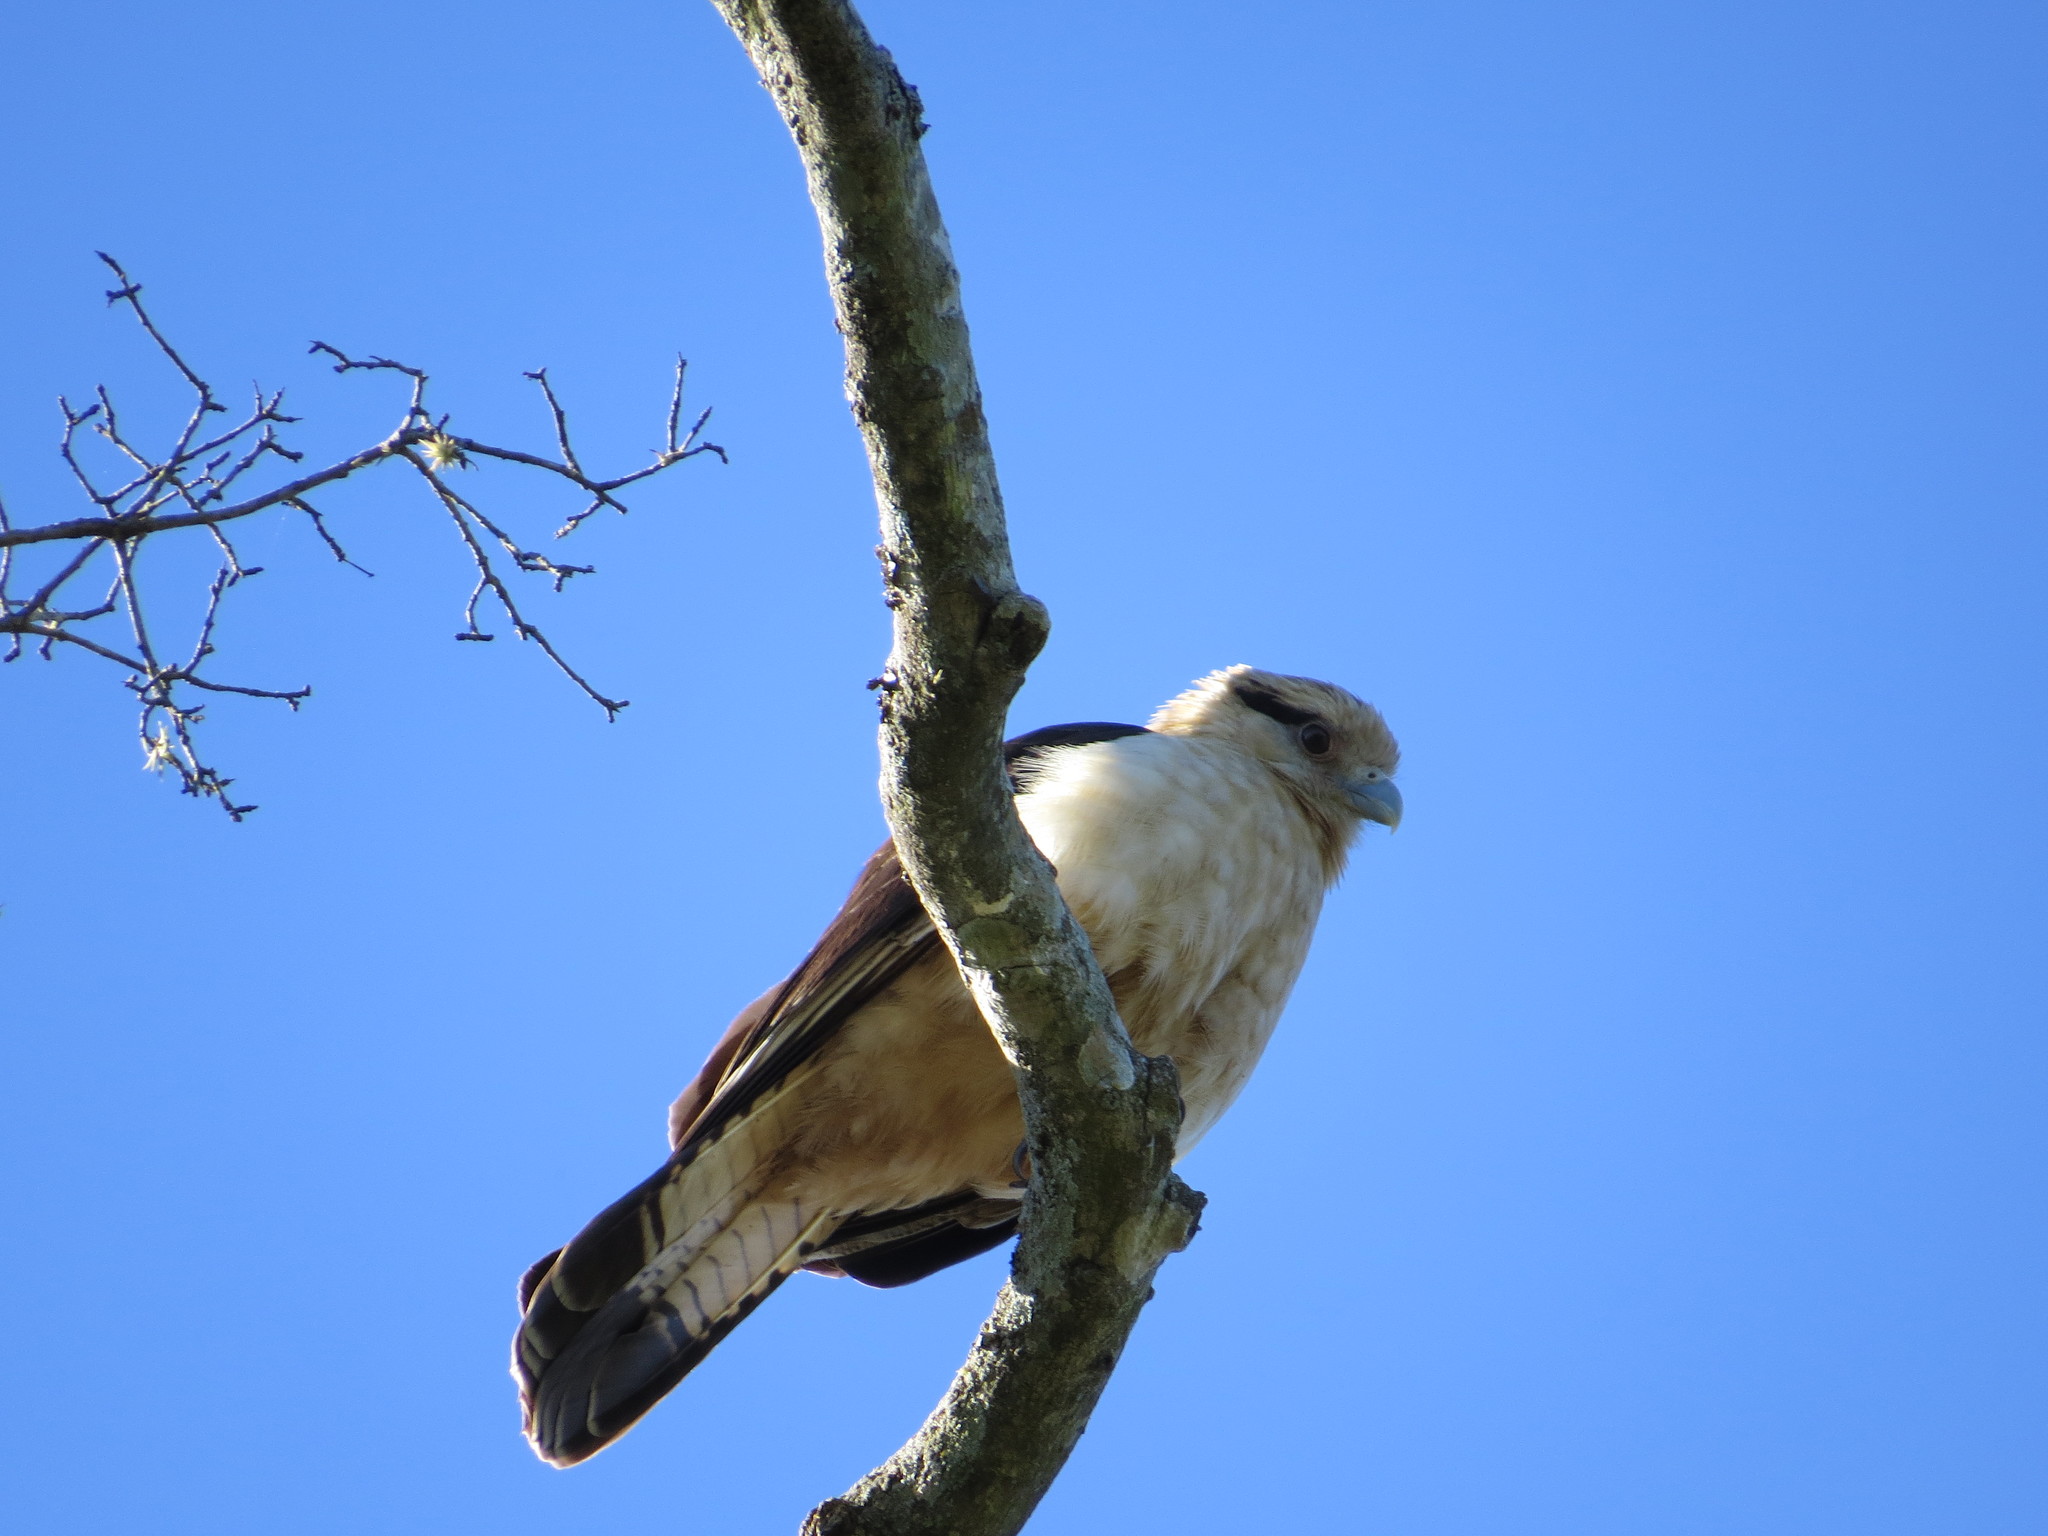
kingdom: Animalia
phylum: Chordata
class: Aves
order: Falconiformes
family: Falconidae
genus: Daptrius
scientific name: Daptrius
